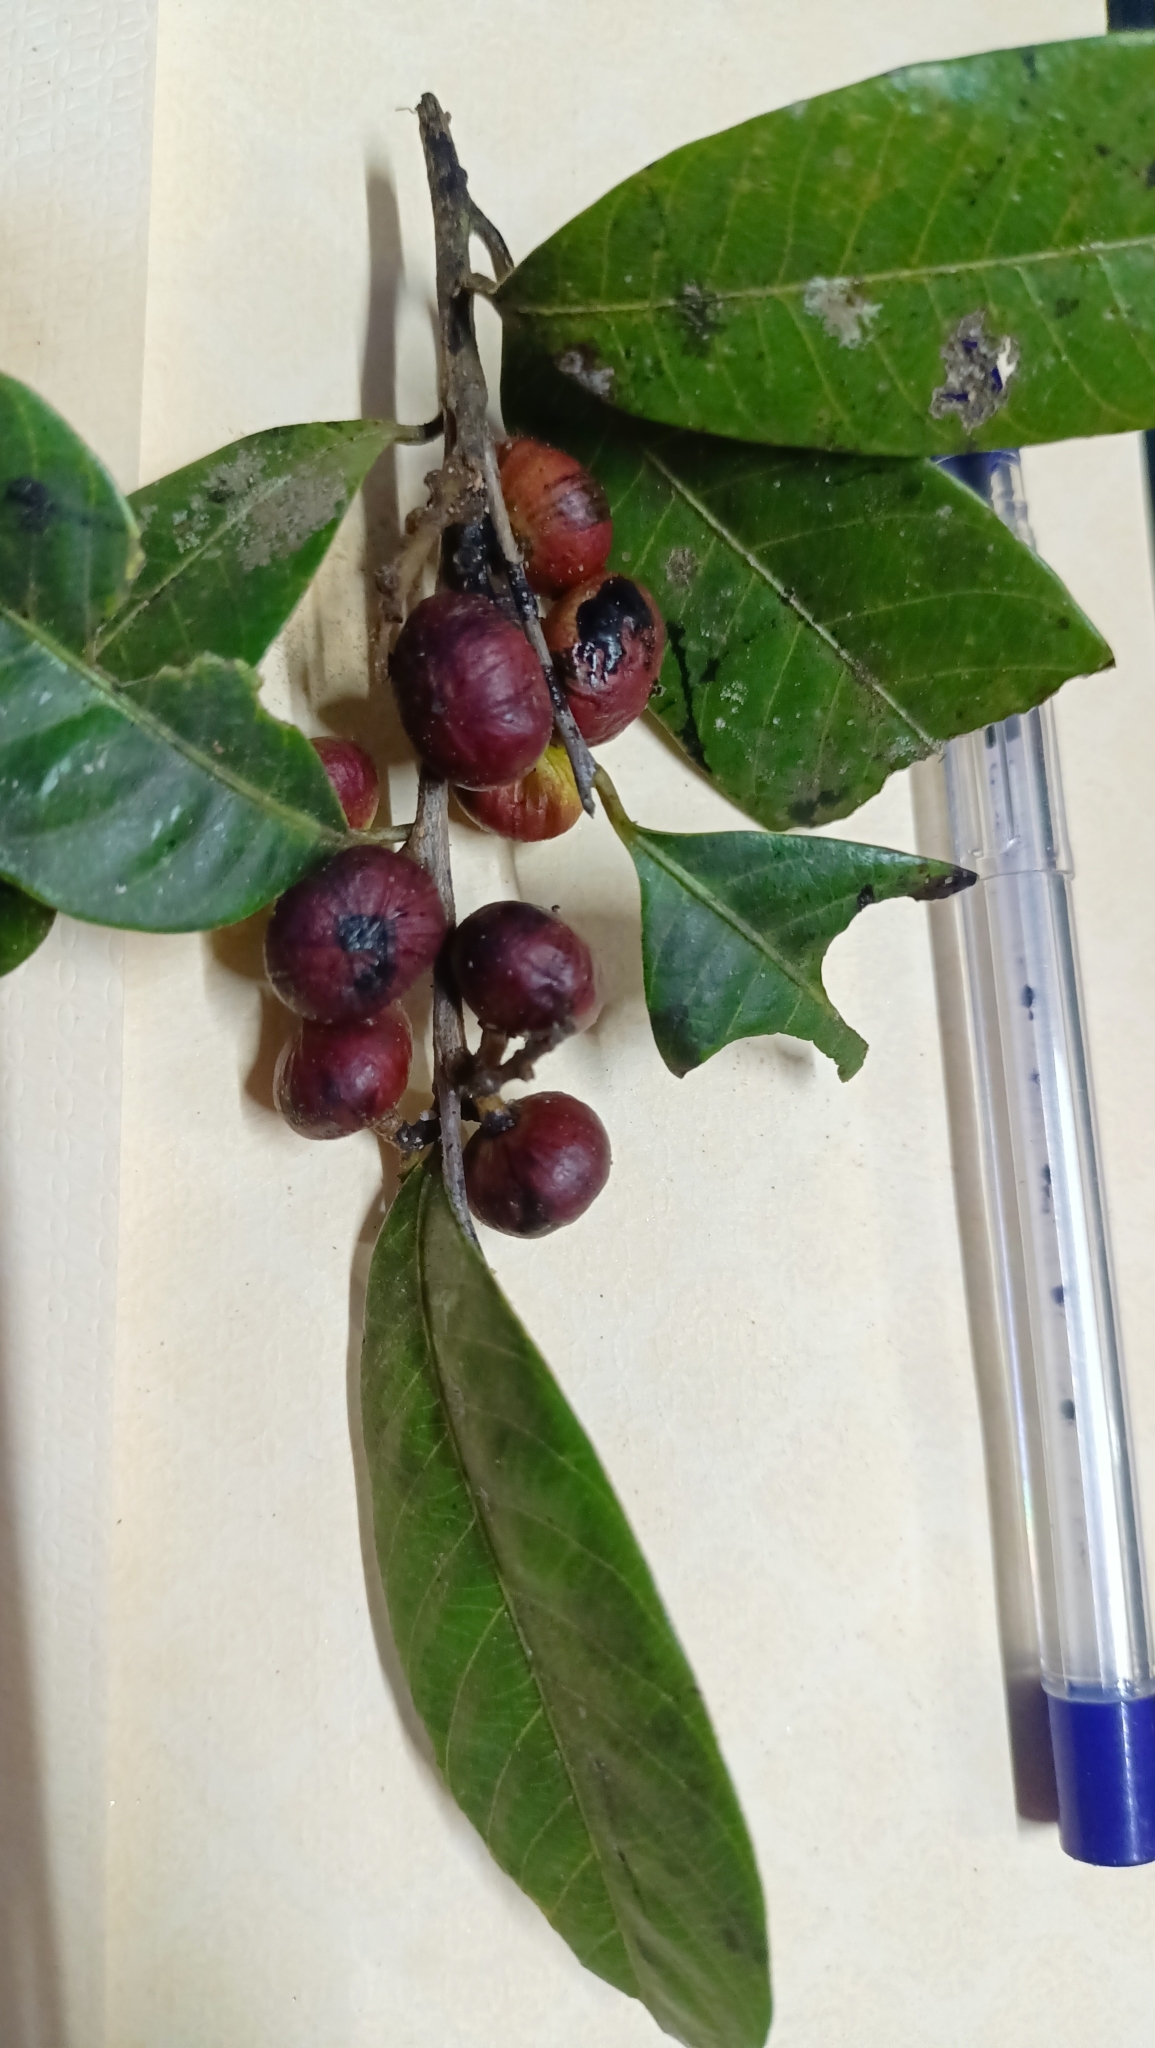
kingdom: Plantae
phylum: Tracheophyta
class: Magnoliopsida
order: Sapindales
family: Anacardiaceae
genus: Nothopegia
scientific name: Nothopegia castaneifolia
